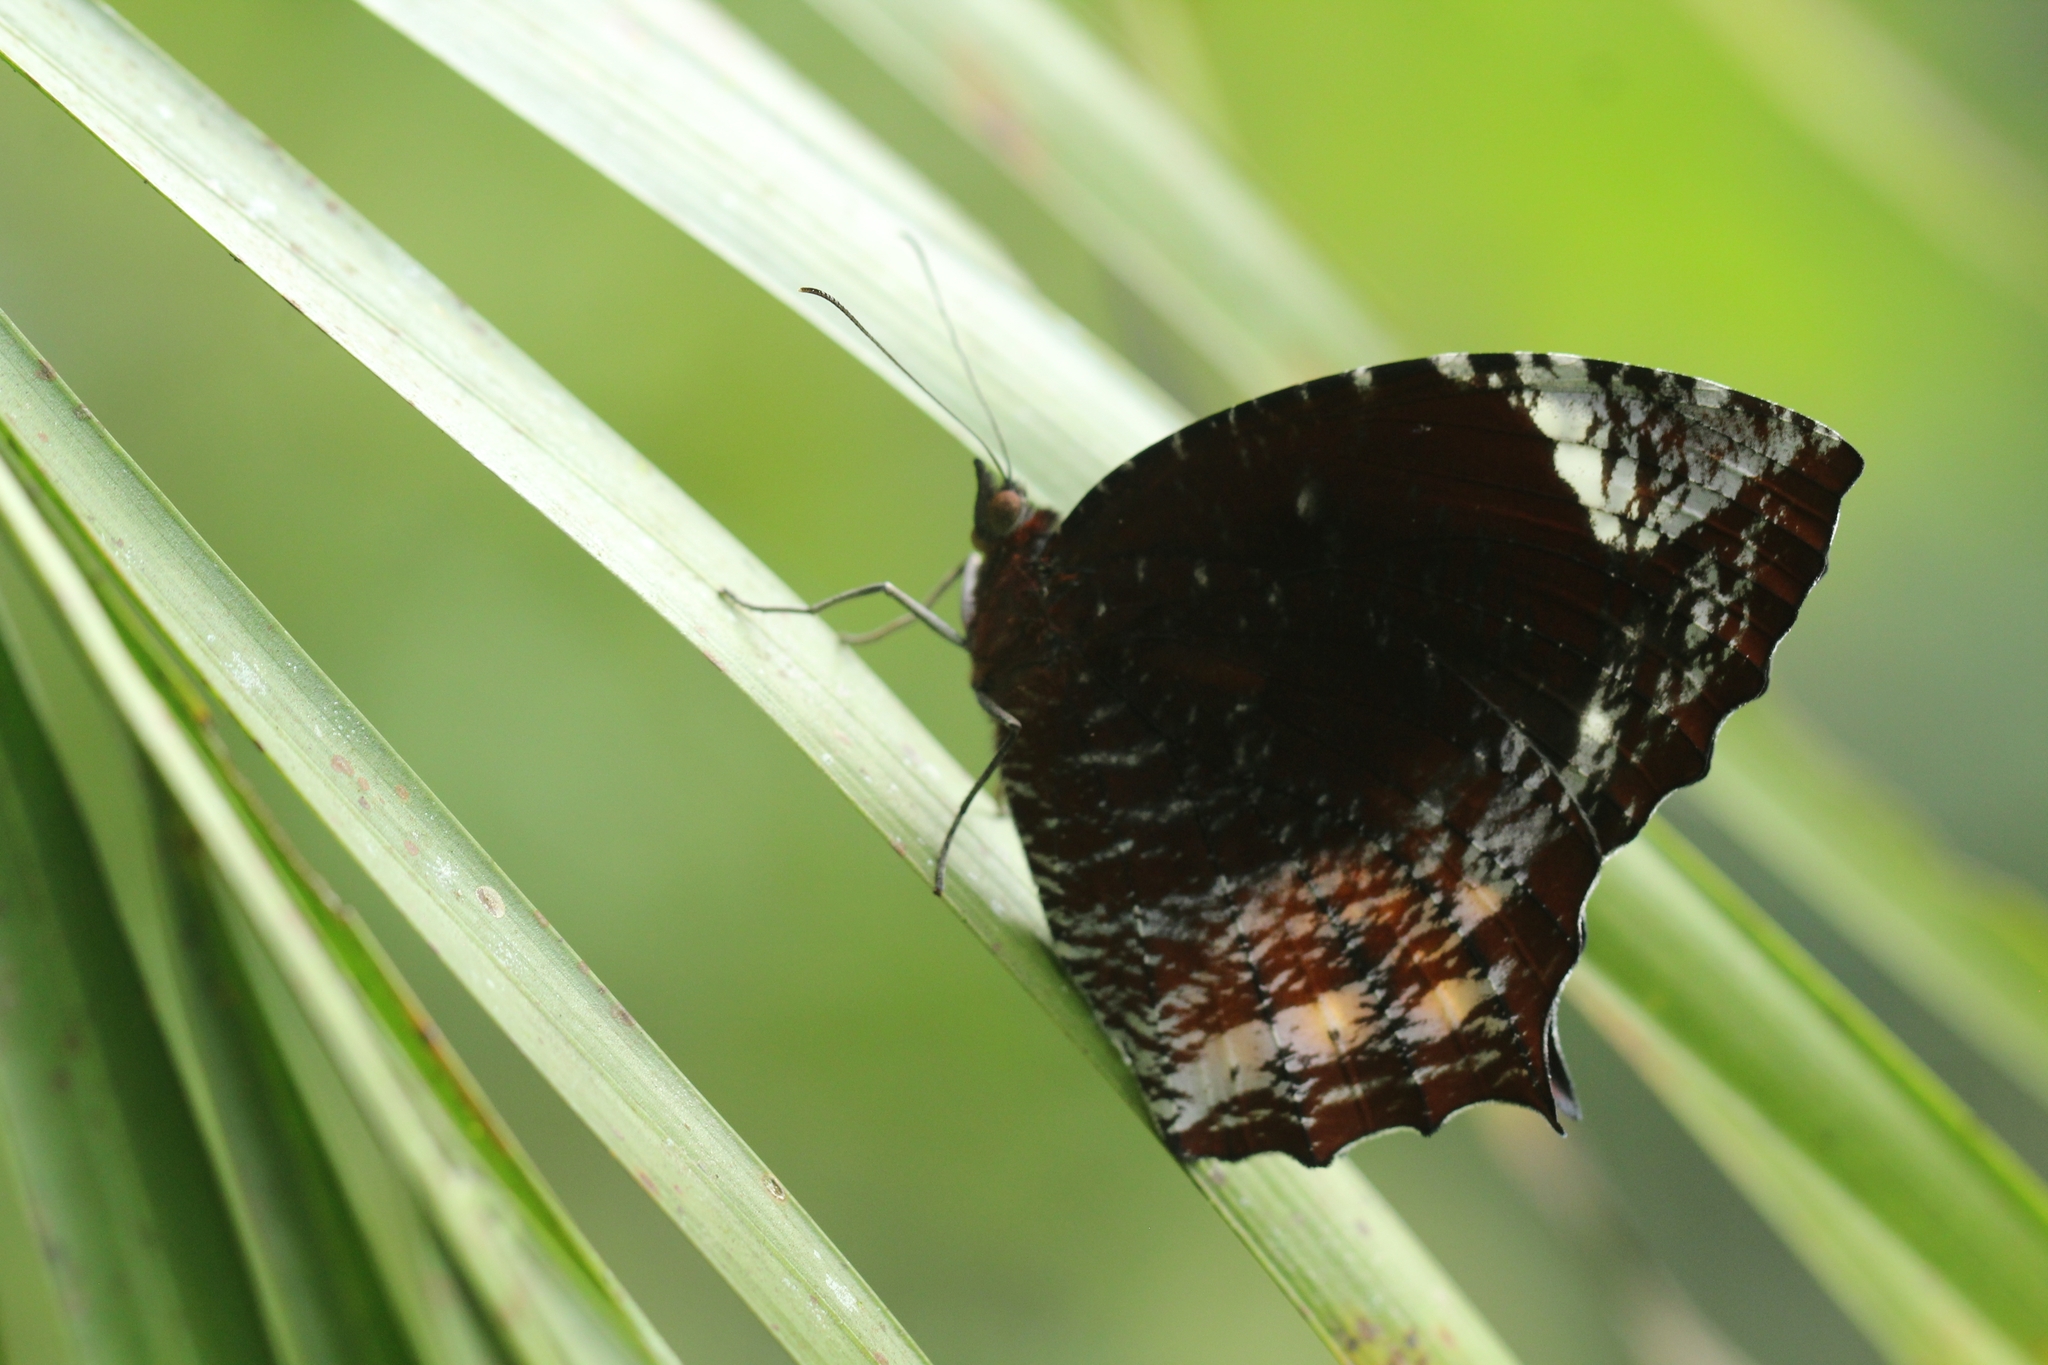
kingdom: Animalia
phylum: Arthropoda
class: Insecta
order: Lepidoptera
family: Nymphalidae
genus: Elymnias
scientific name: Elymnias caudata
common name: Tailed palmfly
